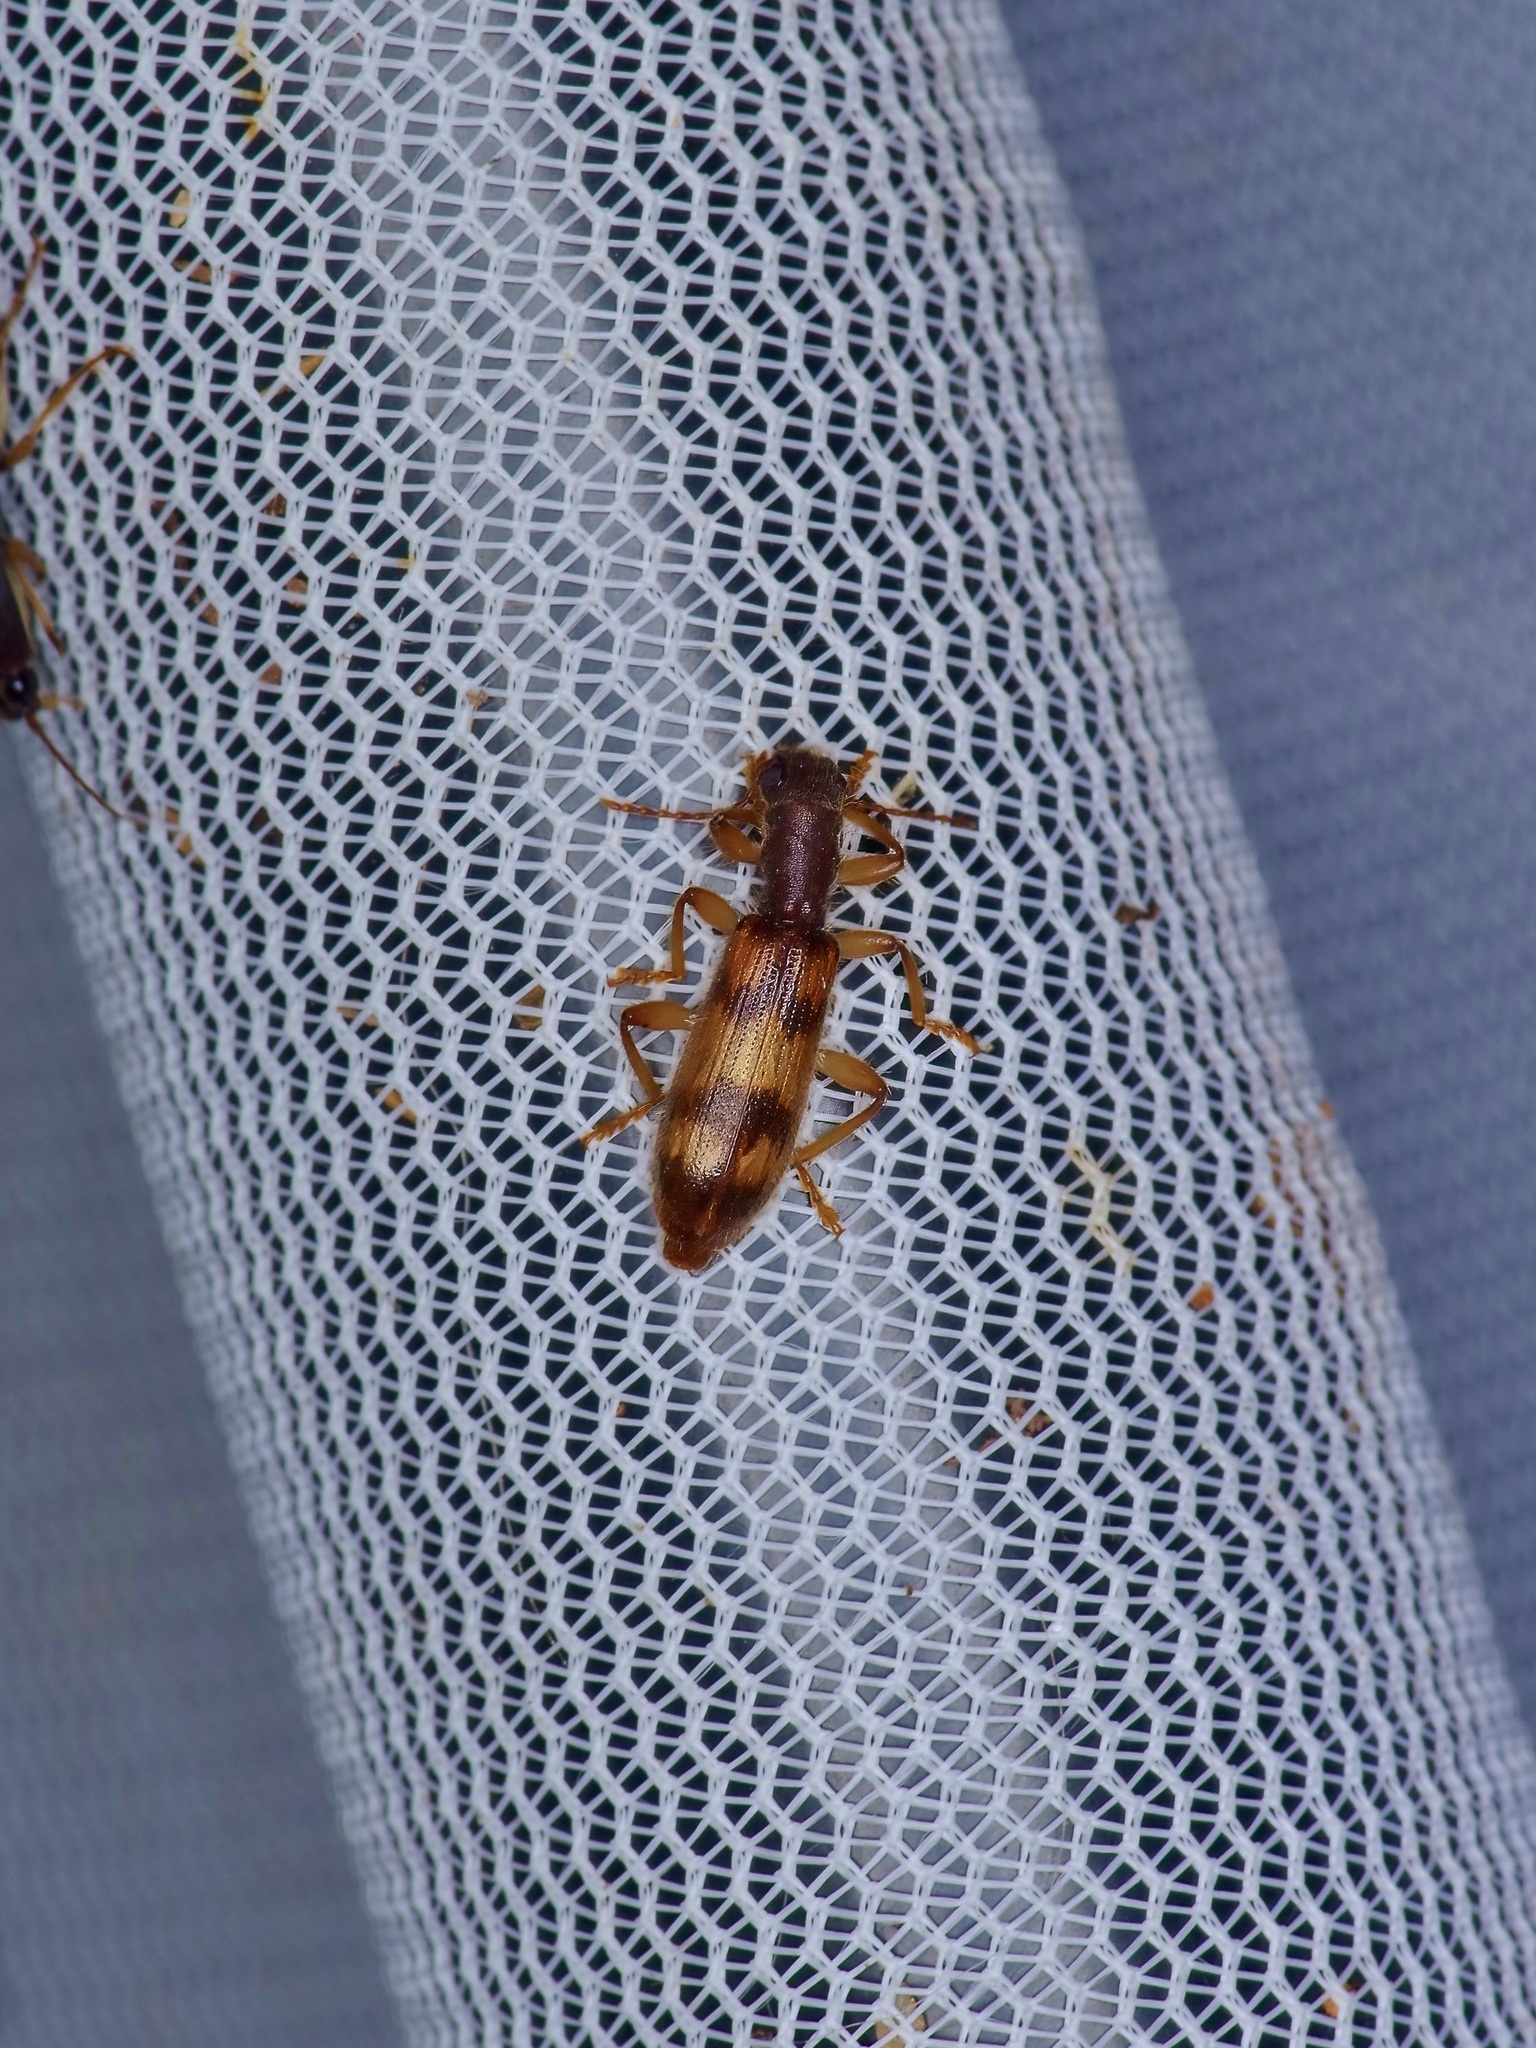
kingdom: Animalia
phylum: Arthropoda
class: Insecta
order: Coleoptera
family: Cleridae
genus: Cymatodera
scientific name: Cymatodera undulata
